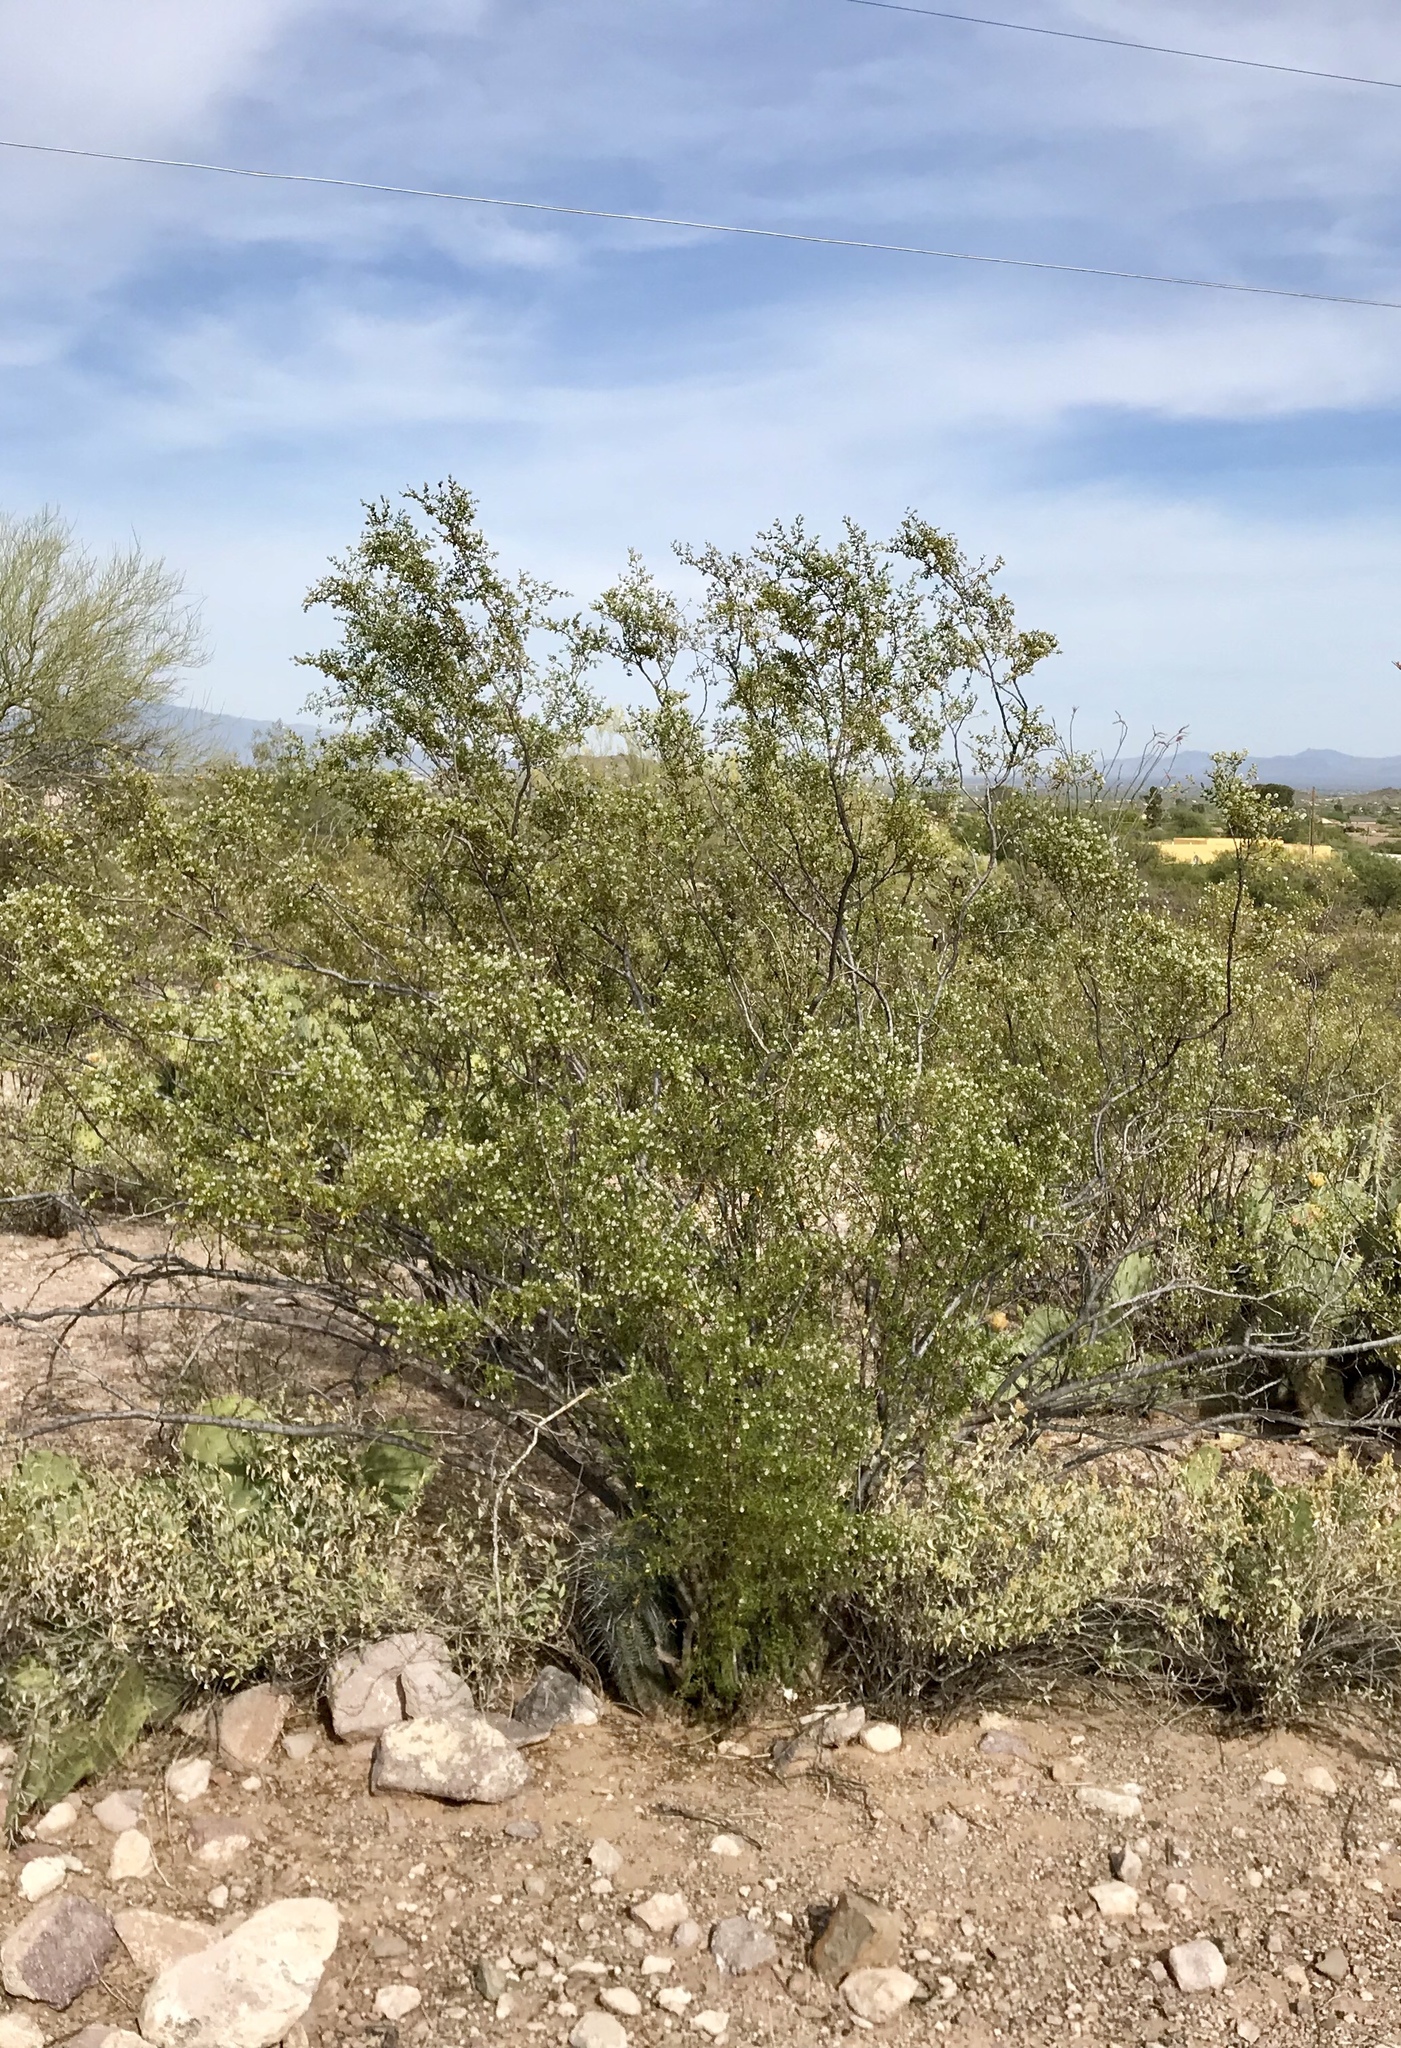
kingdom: Plantae
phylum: Tracheophyta
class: Magnoliopsida
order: Zygophyllales
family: Zygophyllaceae
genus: Larrea
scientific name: Larrea tridentata
